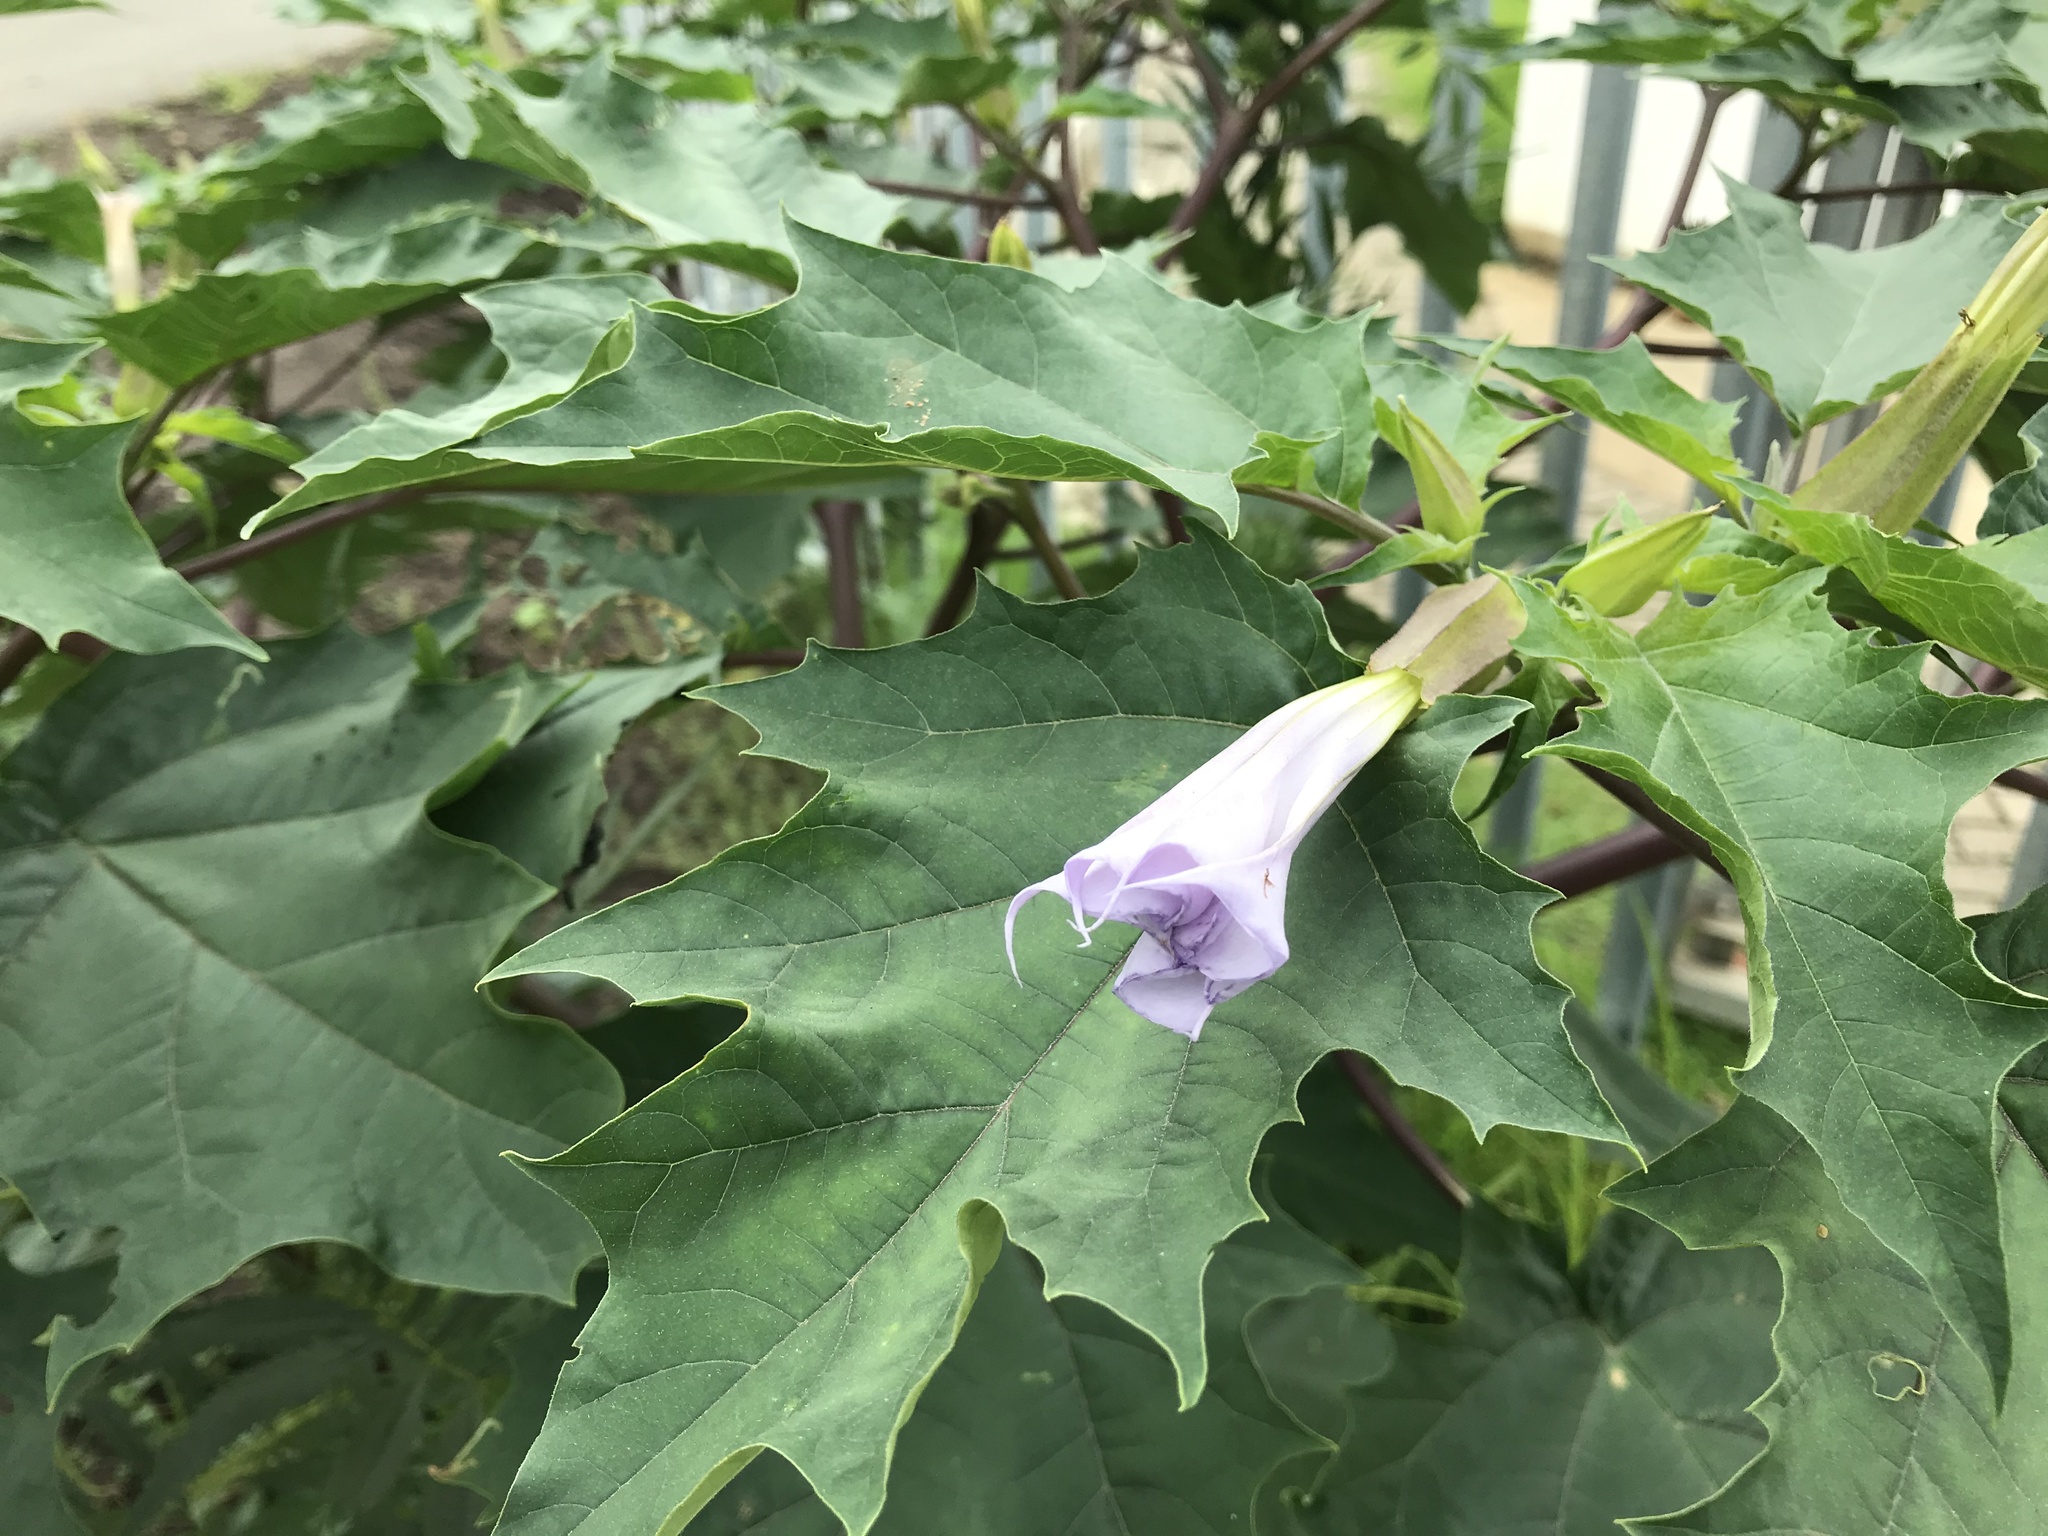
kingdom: Plantae
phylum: Tracheophyta
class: Magnoliopsida
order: Solanales
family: Solanaceae
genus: Datura
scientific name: Datura stramonium
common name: Thorn-apple
